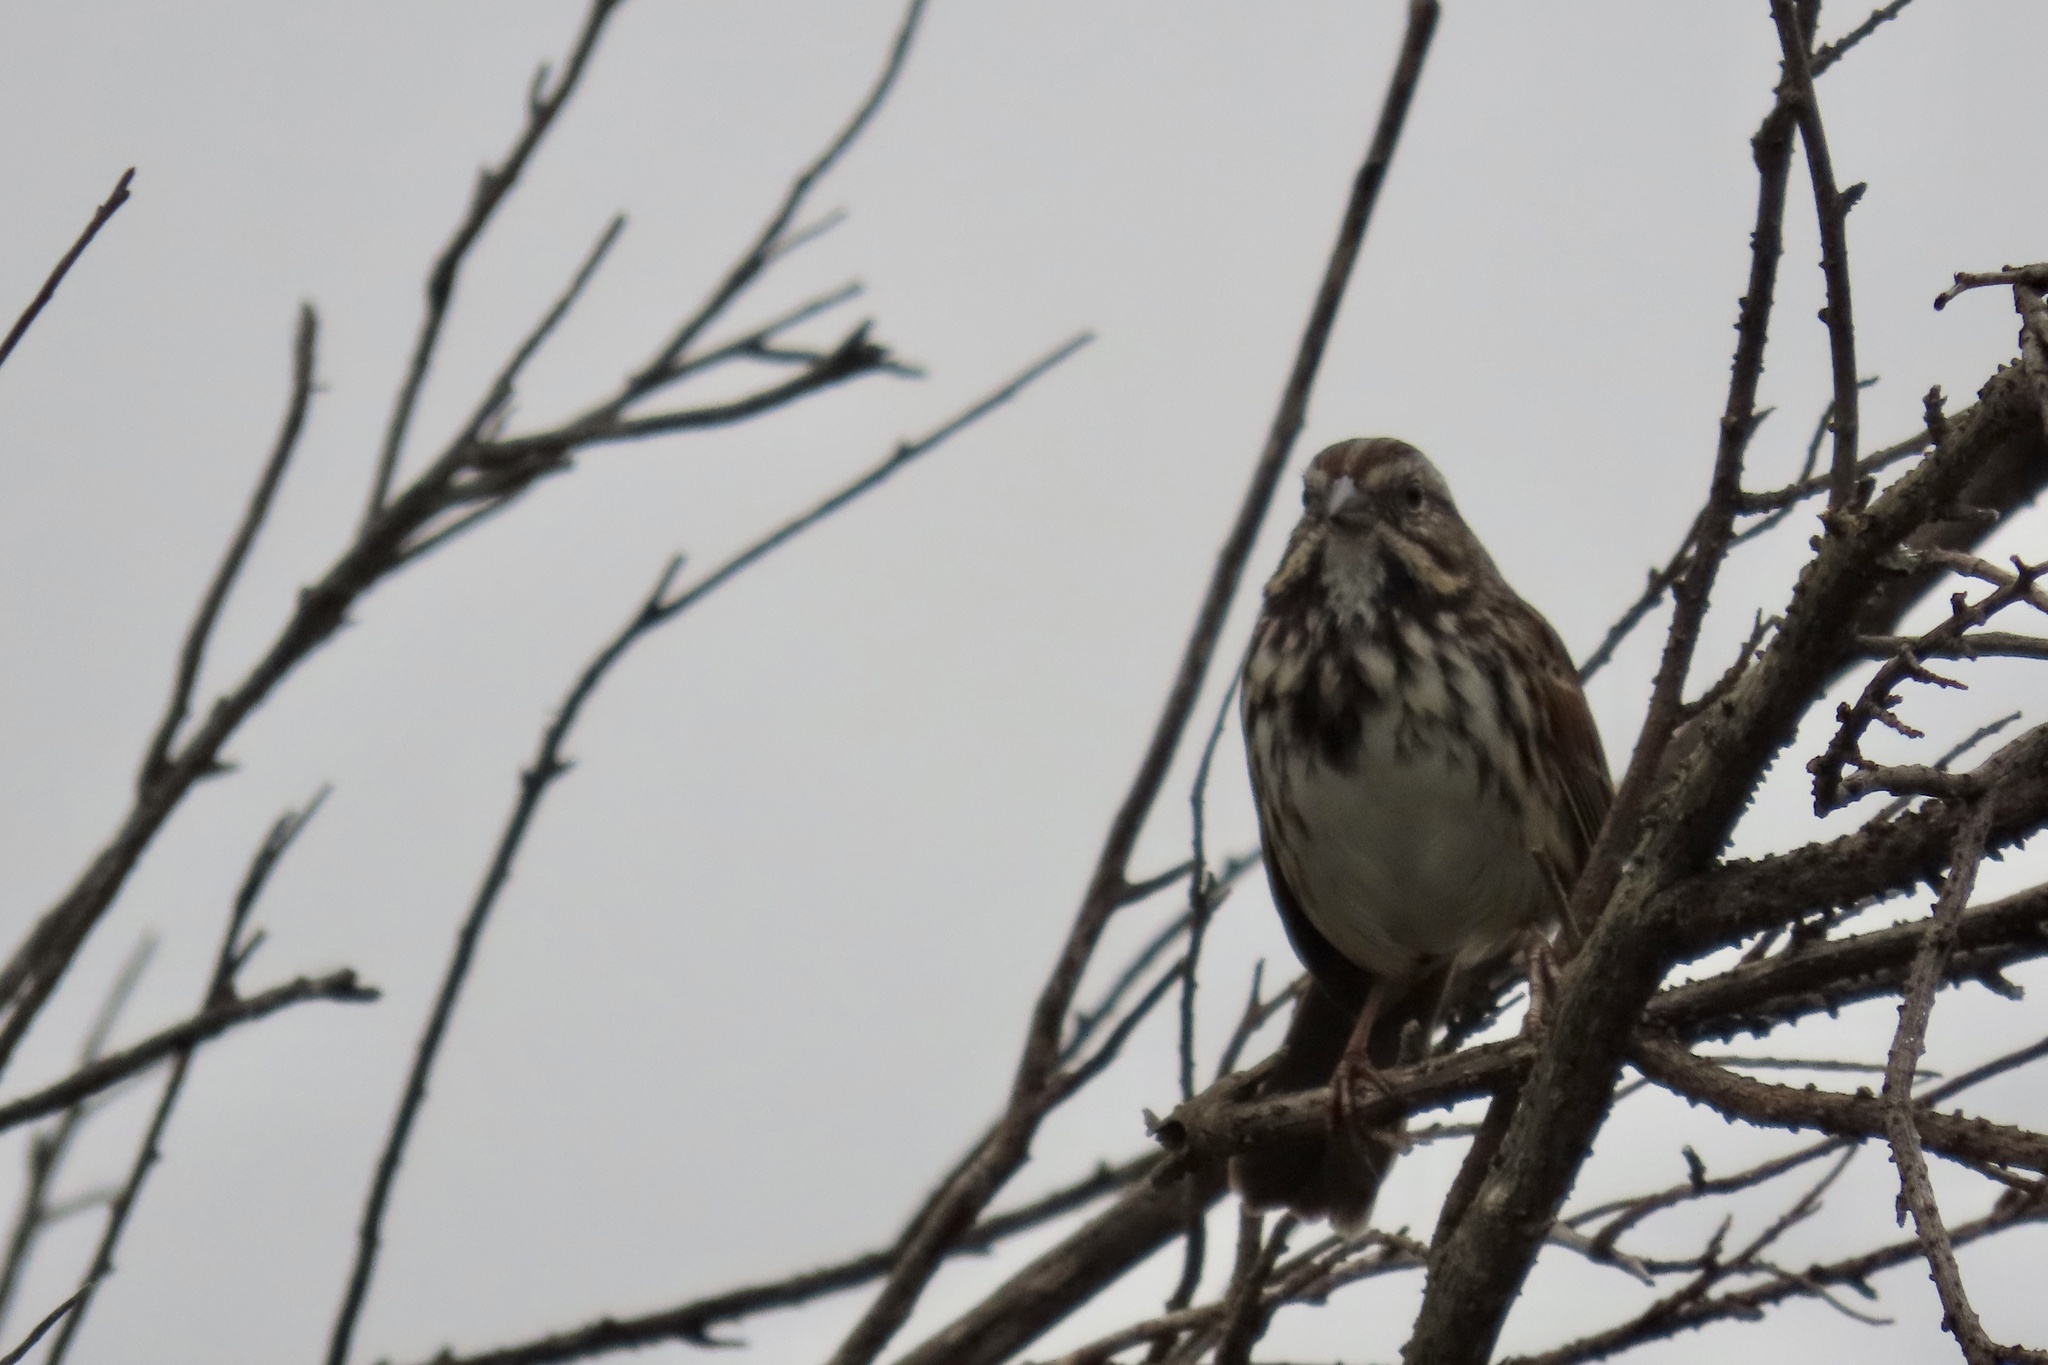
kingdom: Animalia
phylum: Chordata
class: Aves
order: Passeriformes
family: Passerellidae
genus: Melospiza
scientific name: Melospiza melodia
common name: Song sparrow
